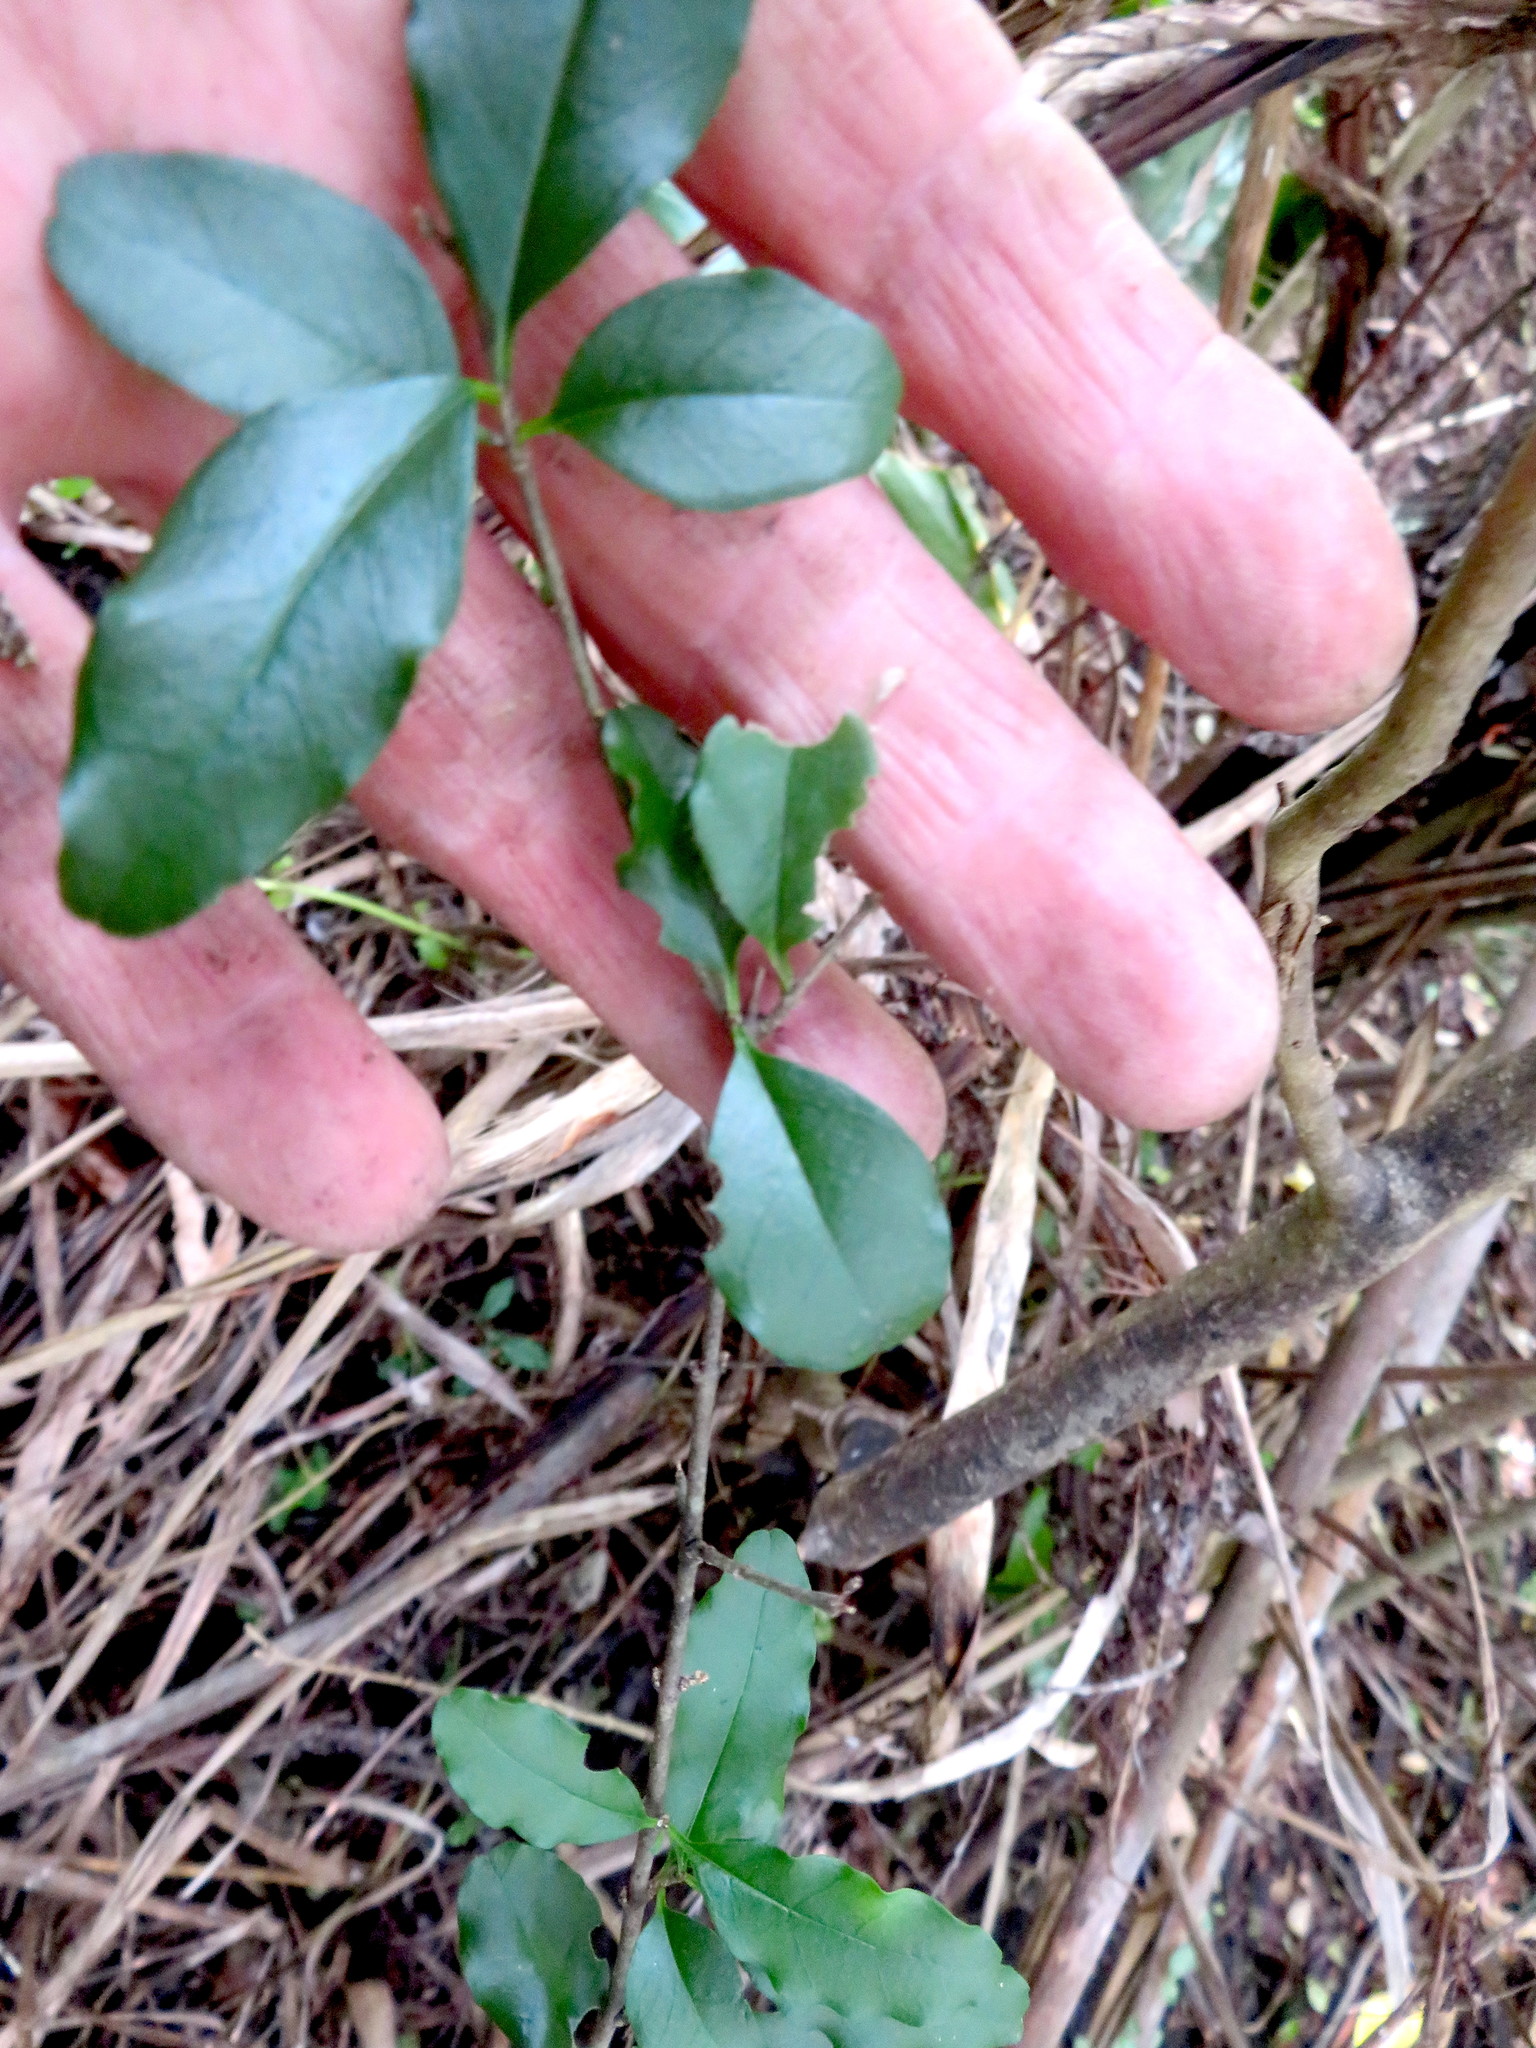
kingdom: Plantae
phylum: Tracheophyta
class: Magnoliopsida
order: Lamiales
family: Oleaceae
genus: Ligustrum
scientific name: Ligustrum sinense
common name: Chinese privet
